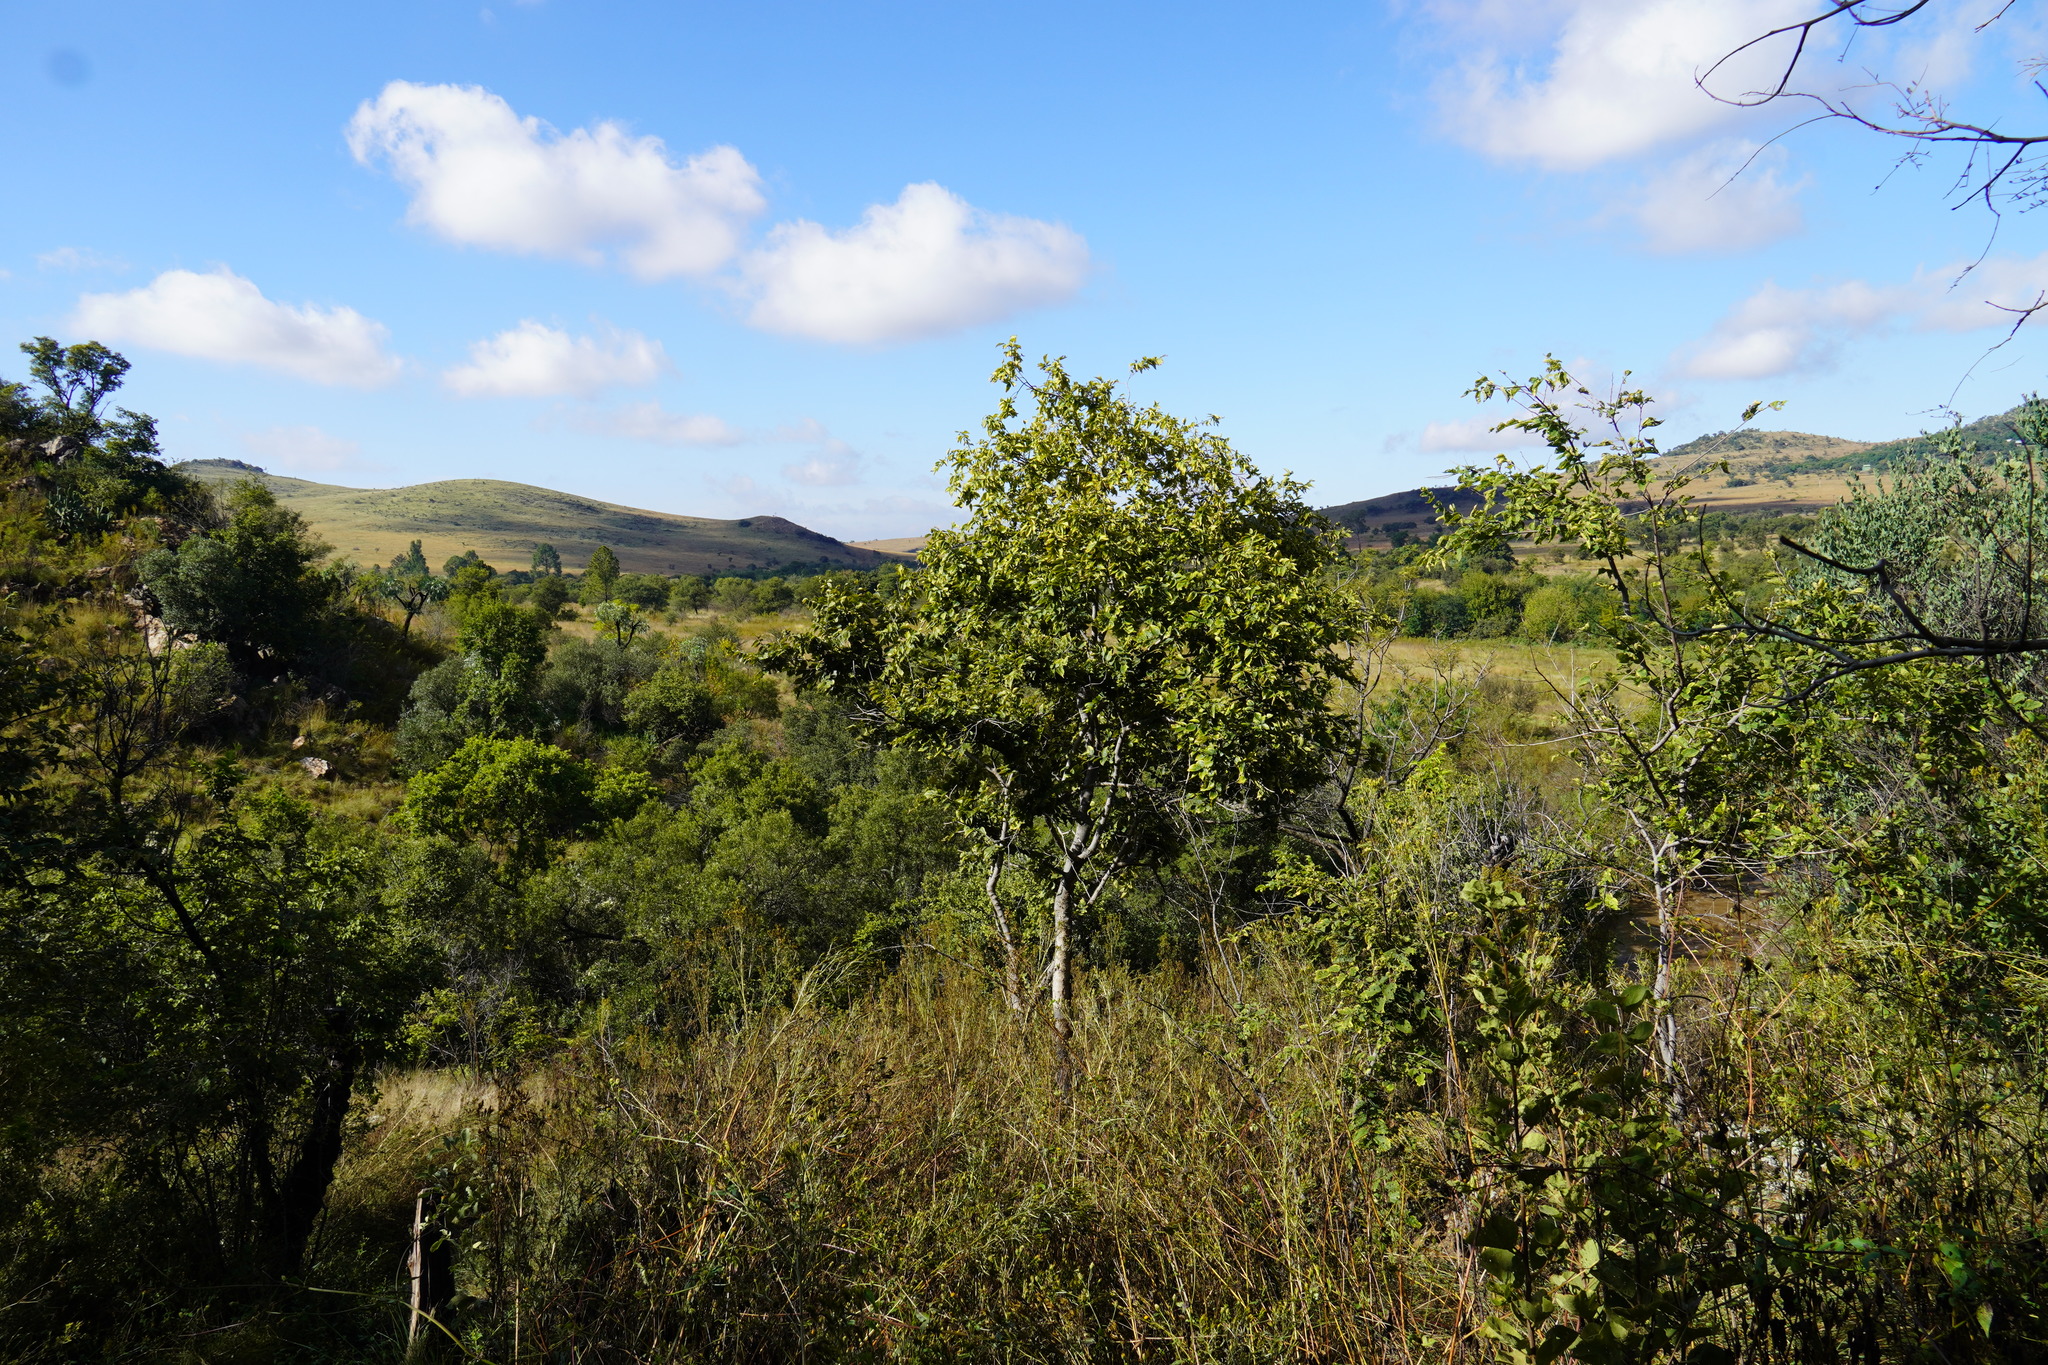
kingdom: Plantae
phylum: Tracheophyta
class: Magnoliopsida
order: Rosales
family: Cannabaceae
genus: Celtis
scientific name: Celtis africana
